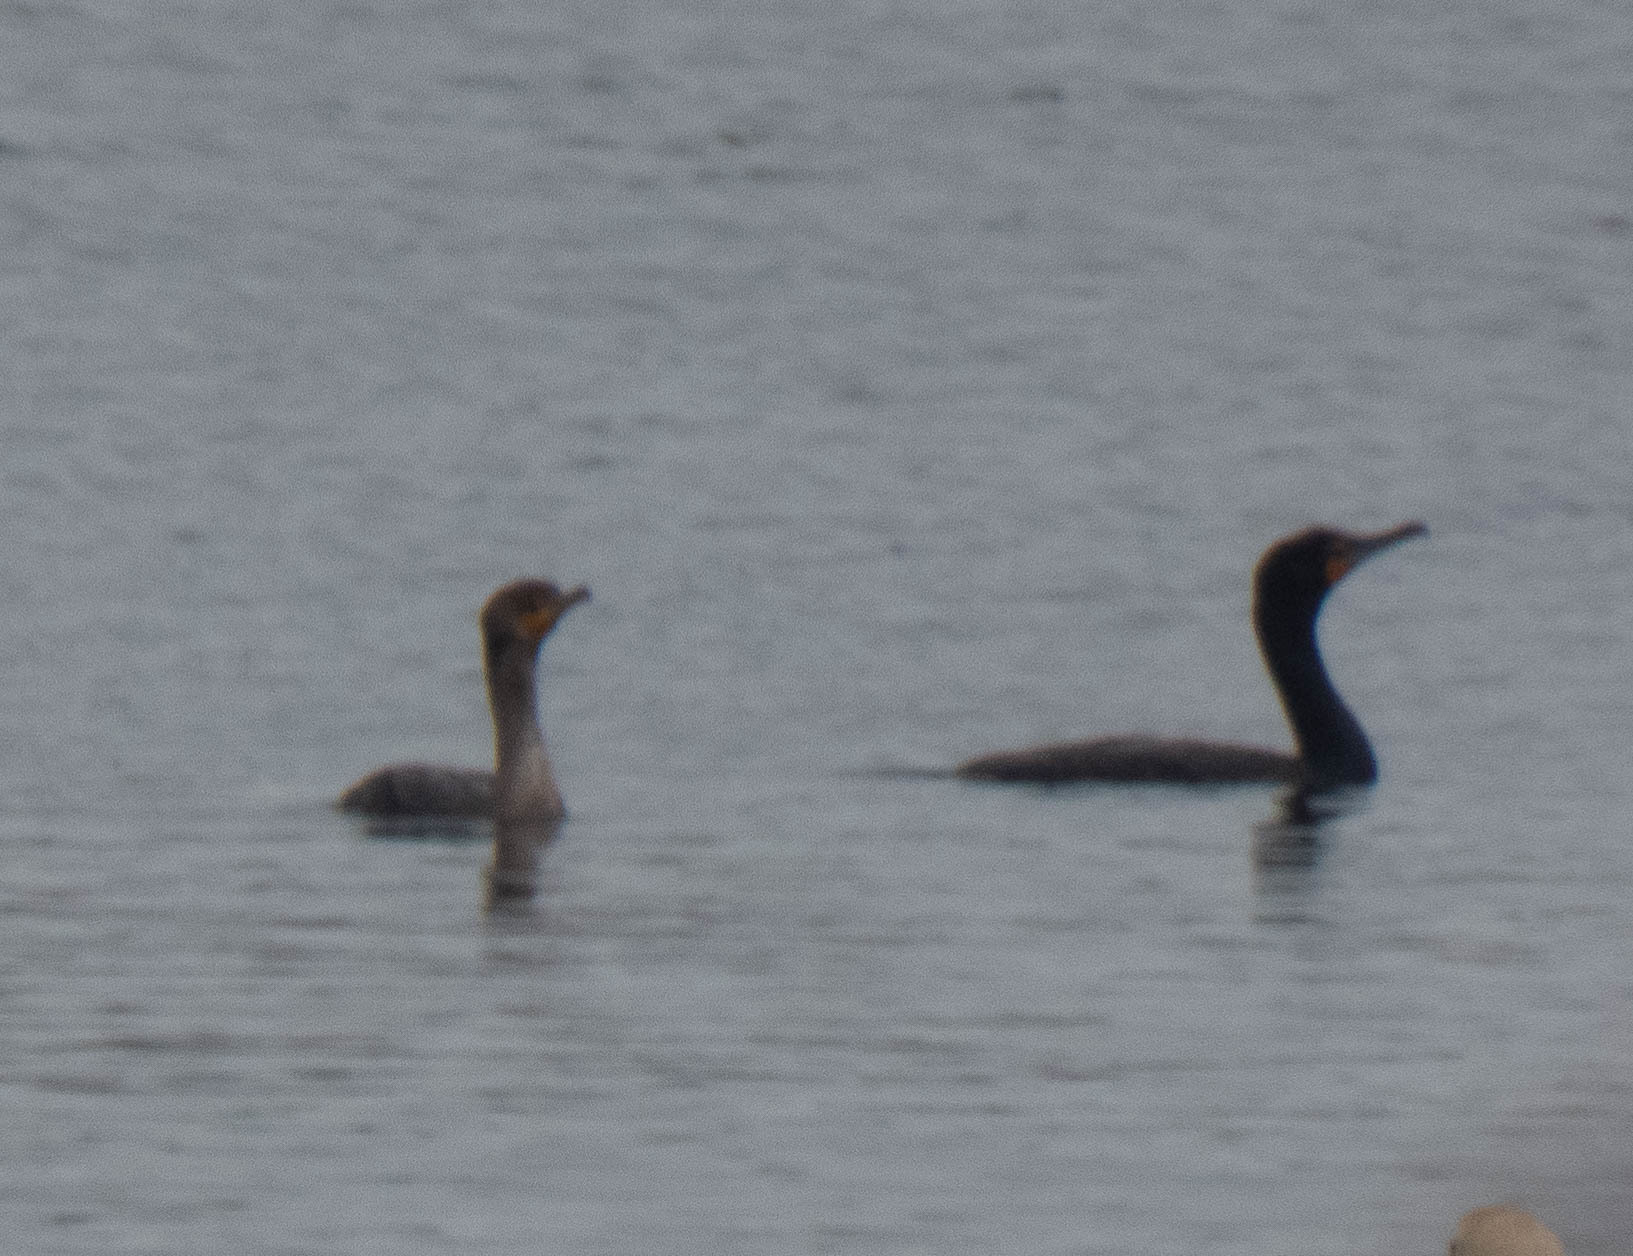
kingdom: Animalia
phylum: Chordata
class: Aves
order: Suliformes
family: Phalacrocoracidae
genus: Phalacrocorax
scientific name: Phalacrocorax auritus
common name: Double-crested cormorant
